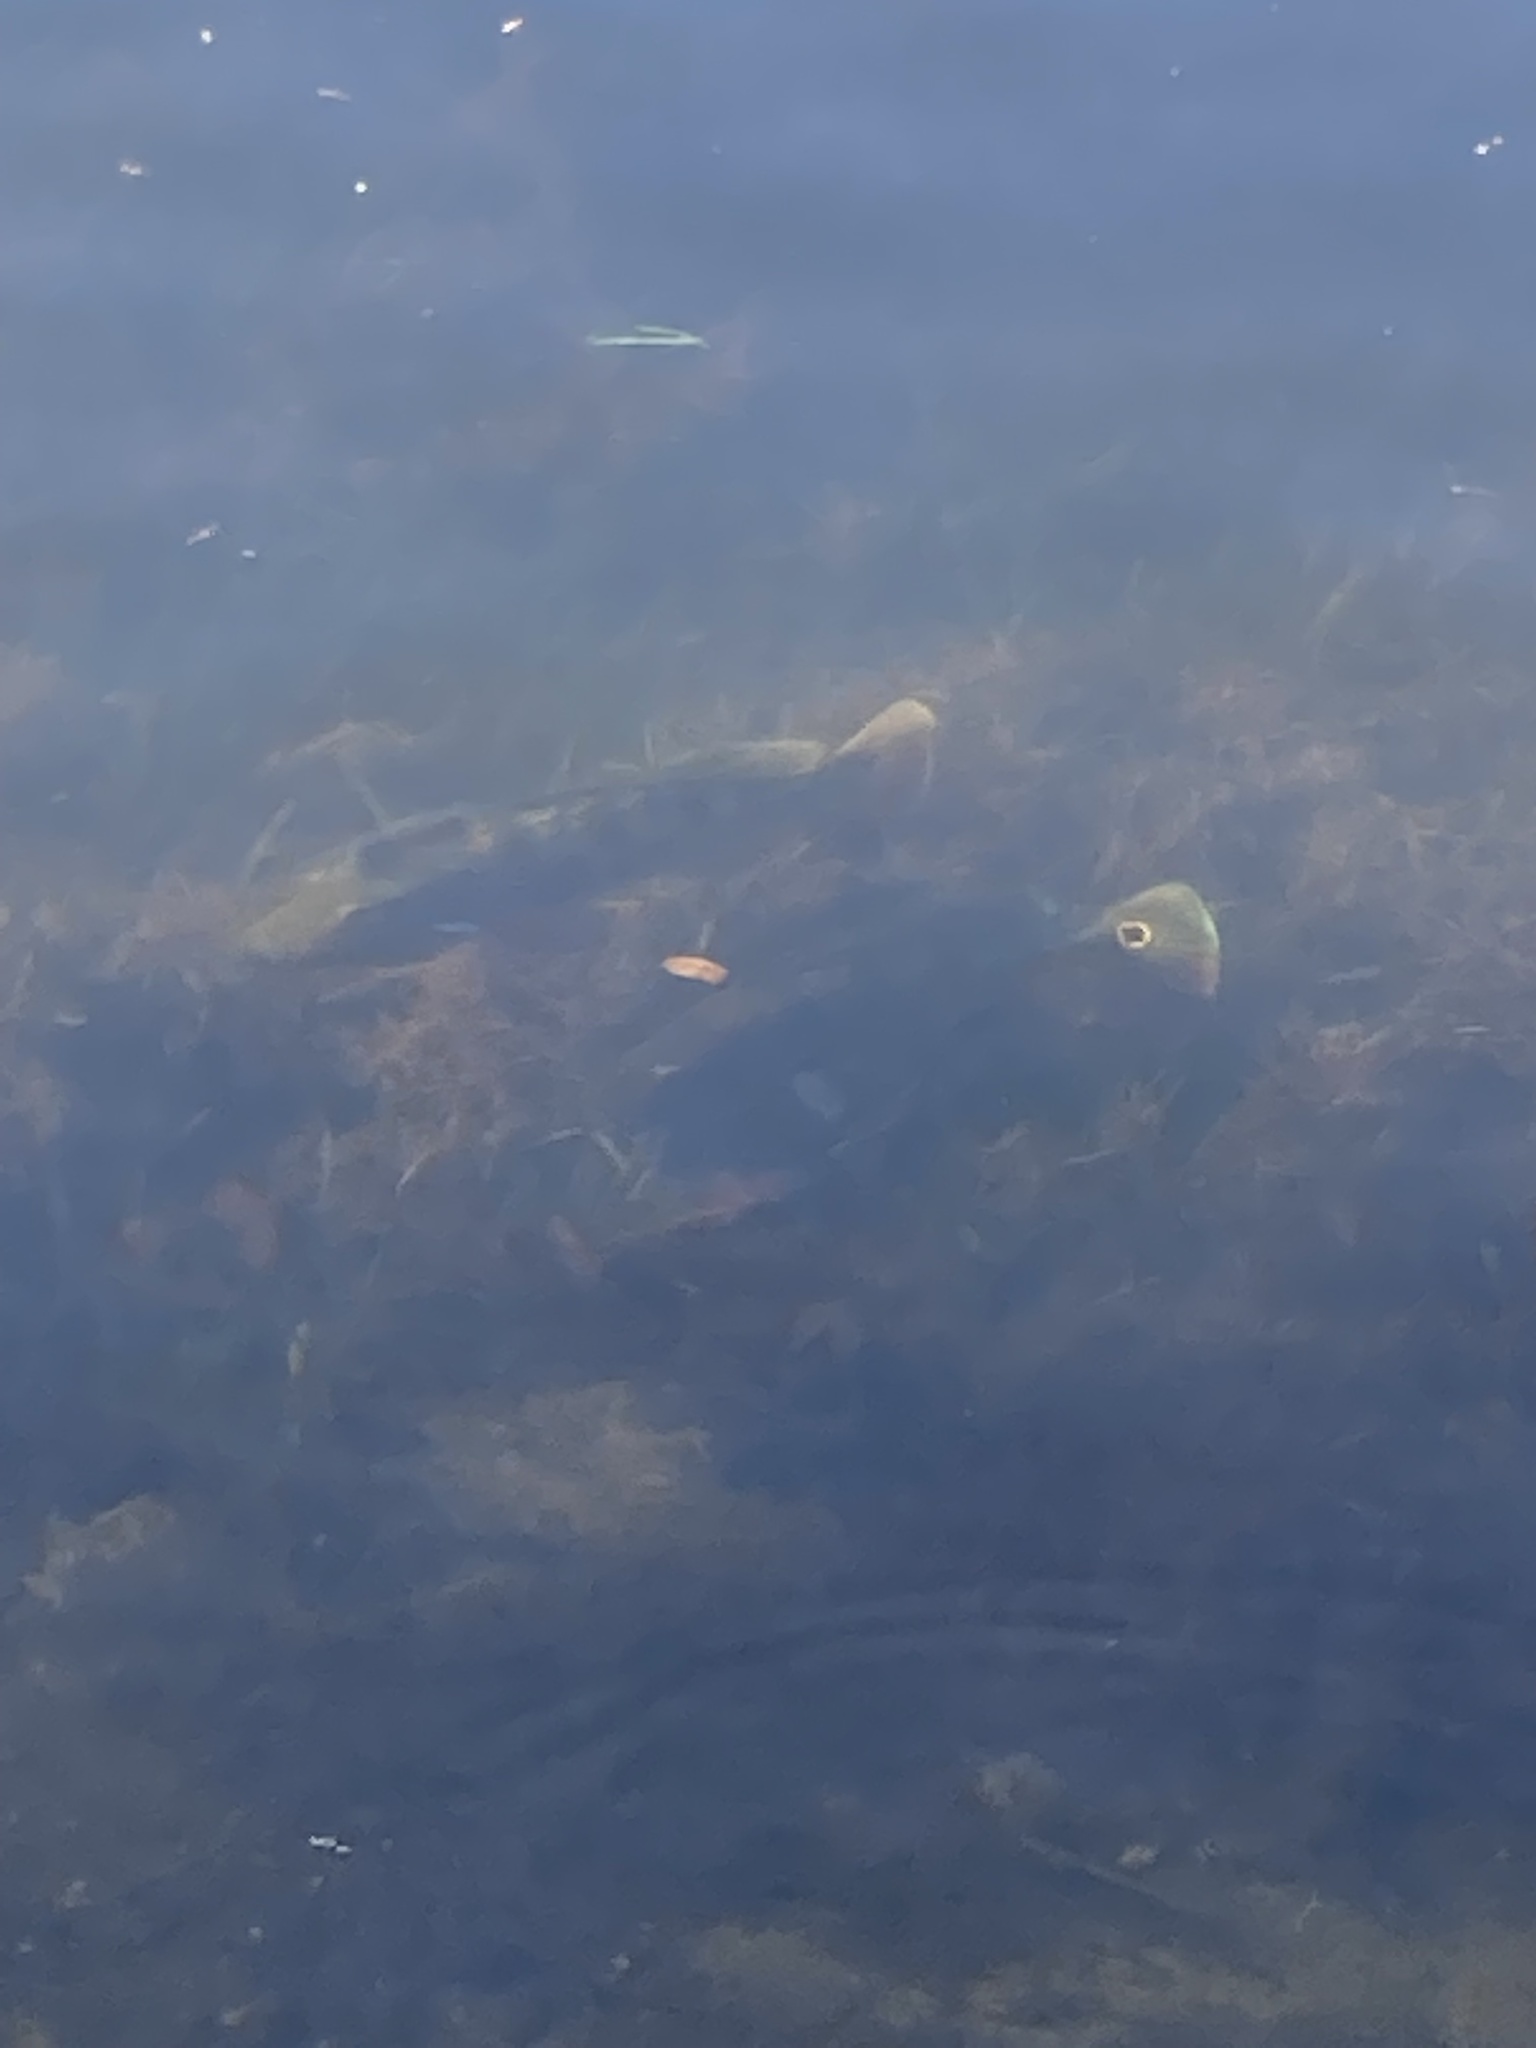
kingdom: Animalia
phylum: Chordata
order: Perciformes
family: Cichlidae
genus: Cichla
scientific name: Cichla ocellaris
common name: Peacock cichlid
